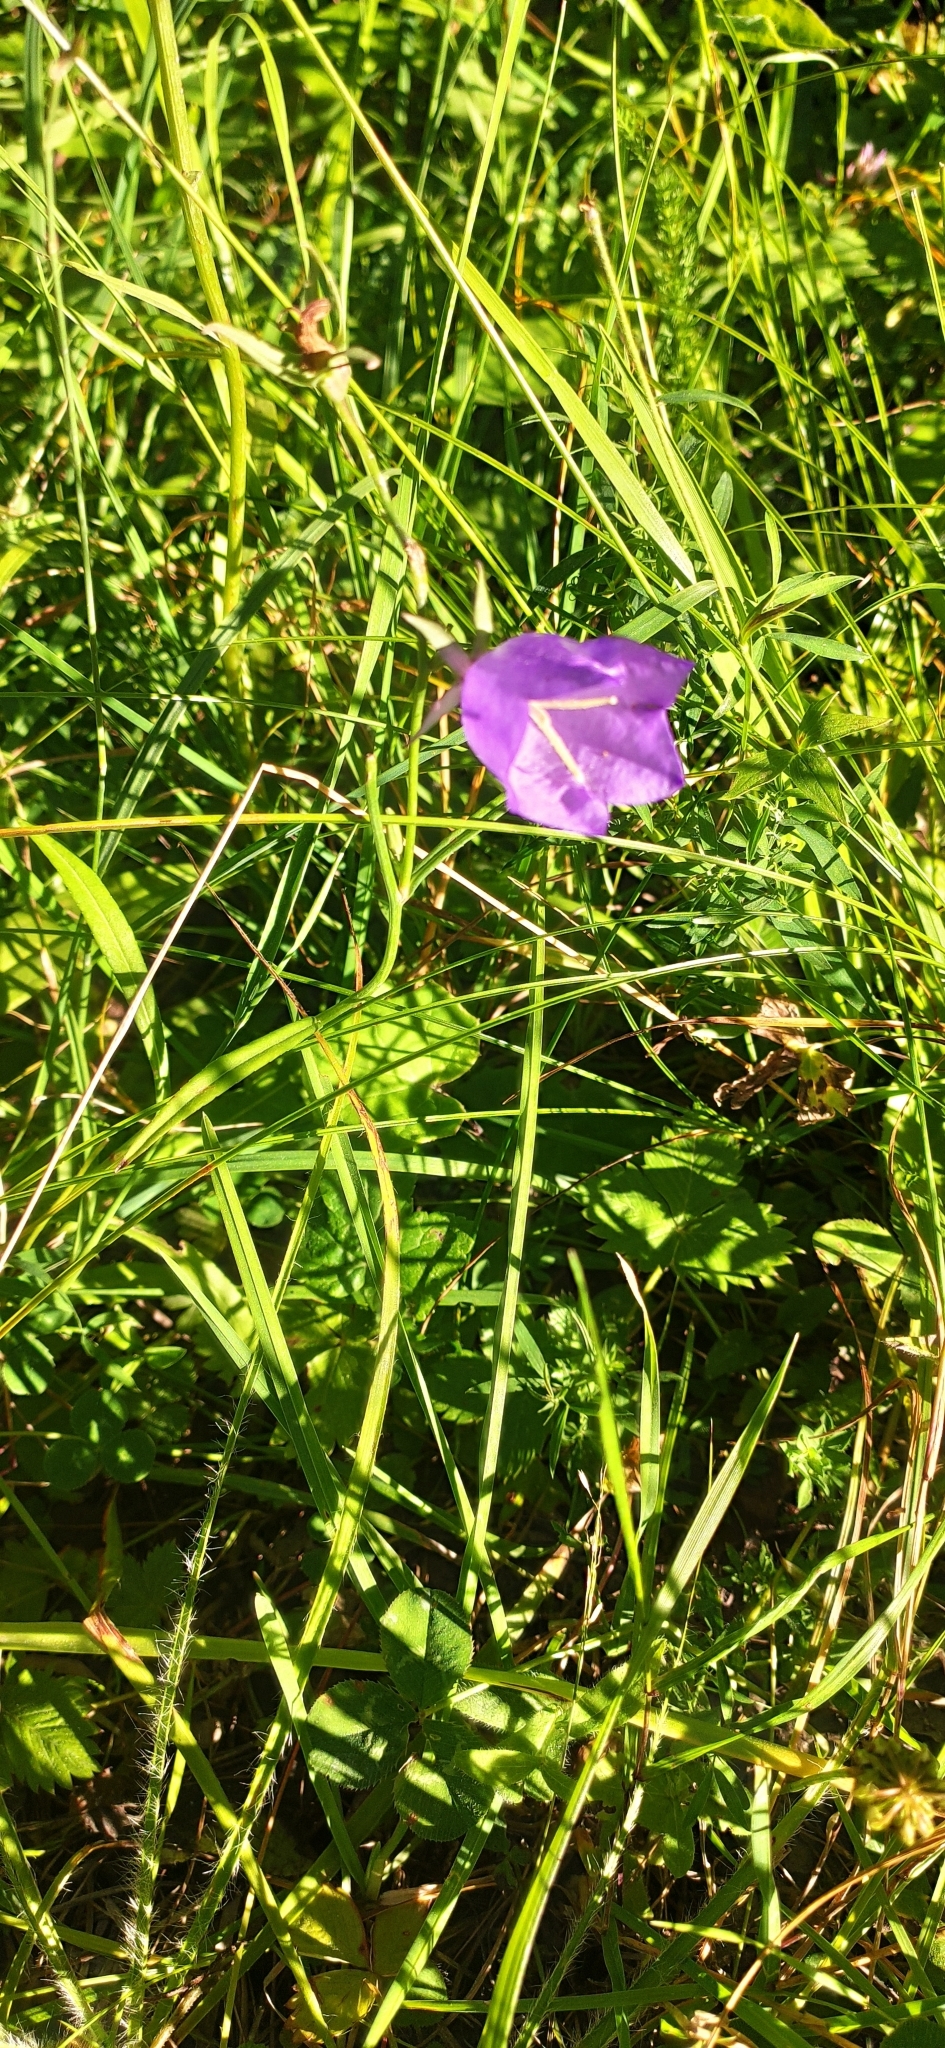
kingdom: Plantae
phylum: Tracheophyta
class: Magnoliopsida
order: Asterales
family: Campanulaceae
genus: Campanula
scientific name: Campanula persicifolia
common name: Peach-leaved bellflower
